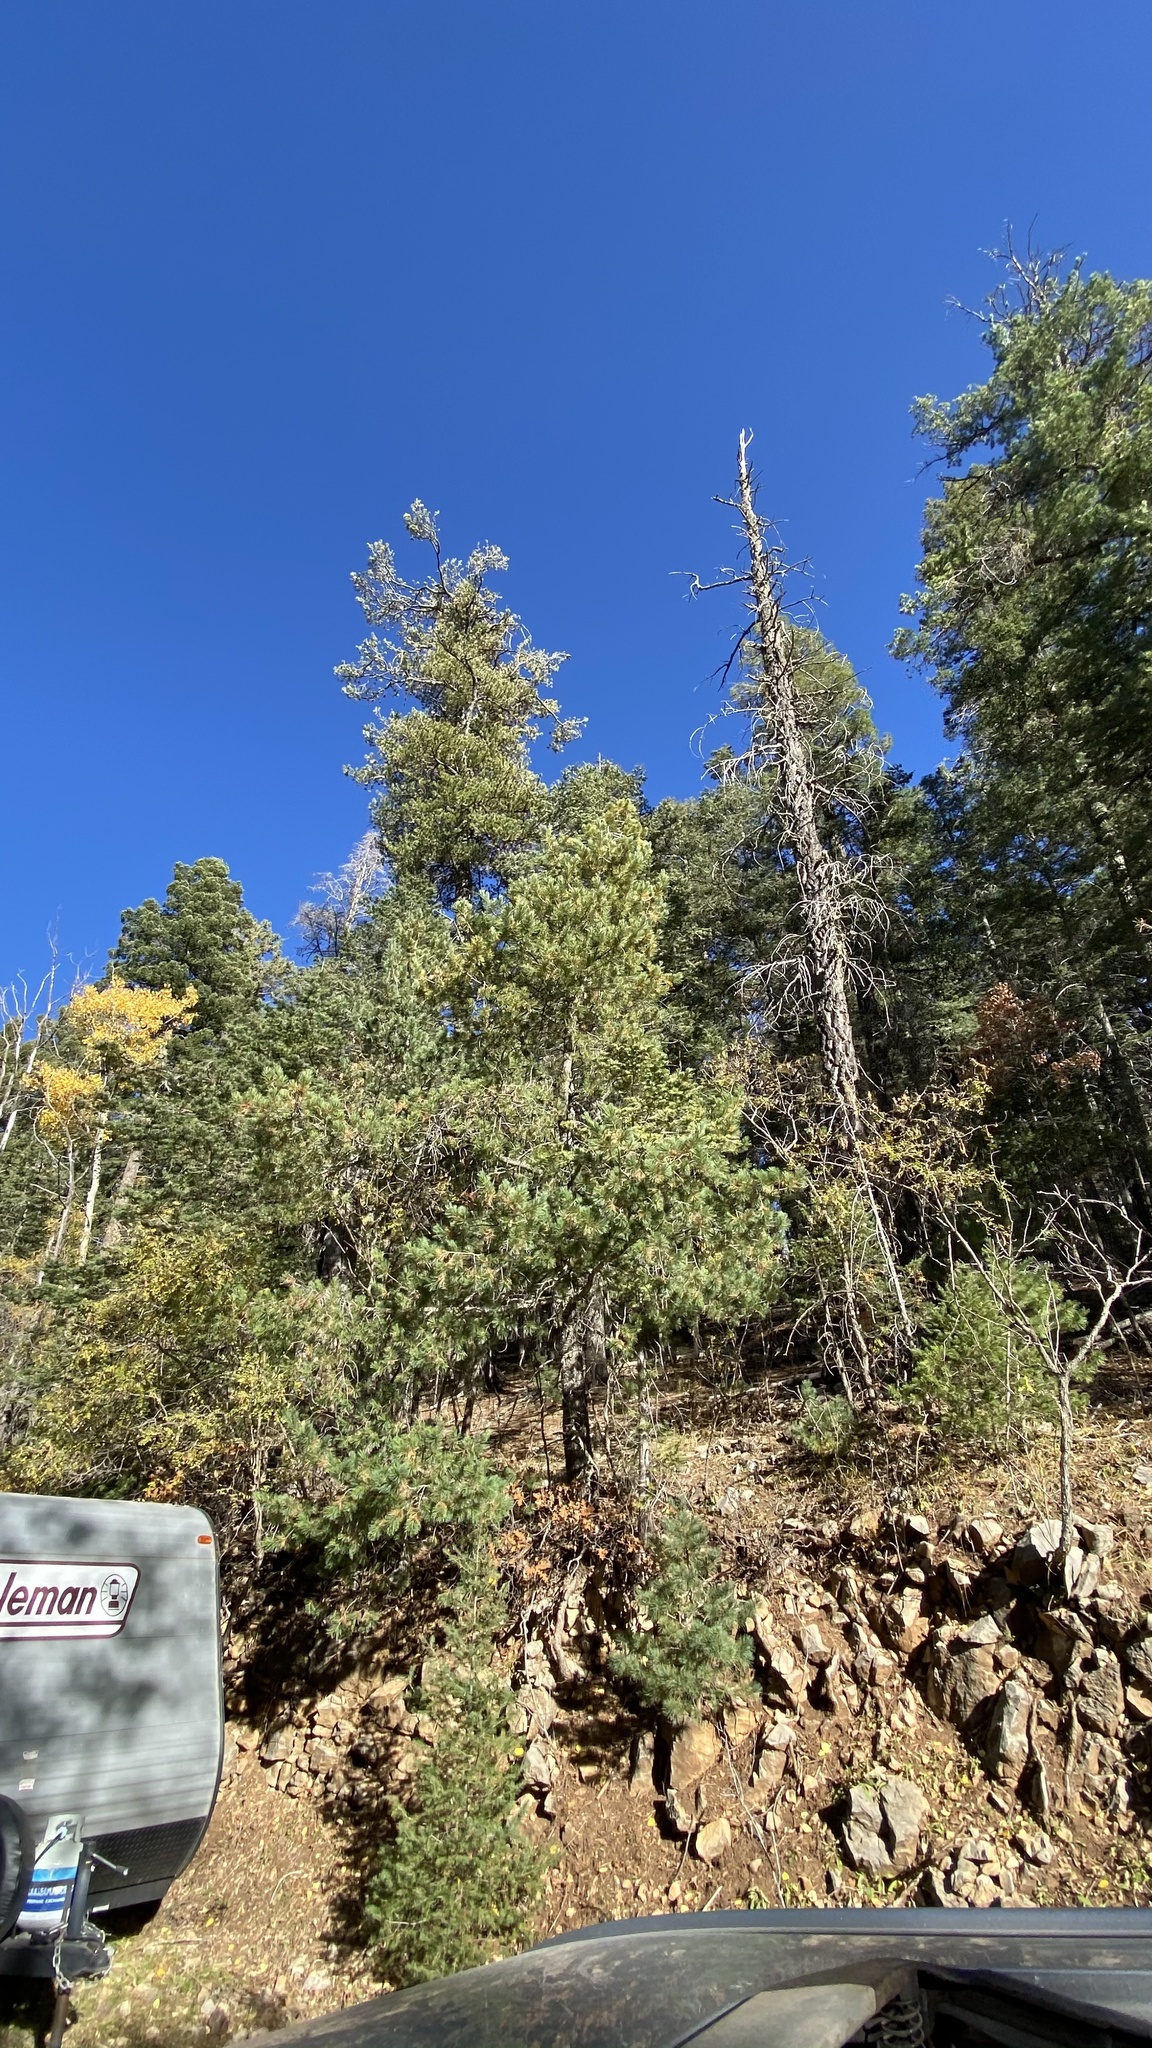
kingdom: Plantae
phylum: Tracheophyta
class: Pinopsida
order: Pinales
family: Pinaceae
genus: Pinus
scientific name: Pinus strobiformis
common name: Southwestern white pine
